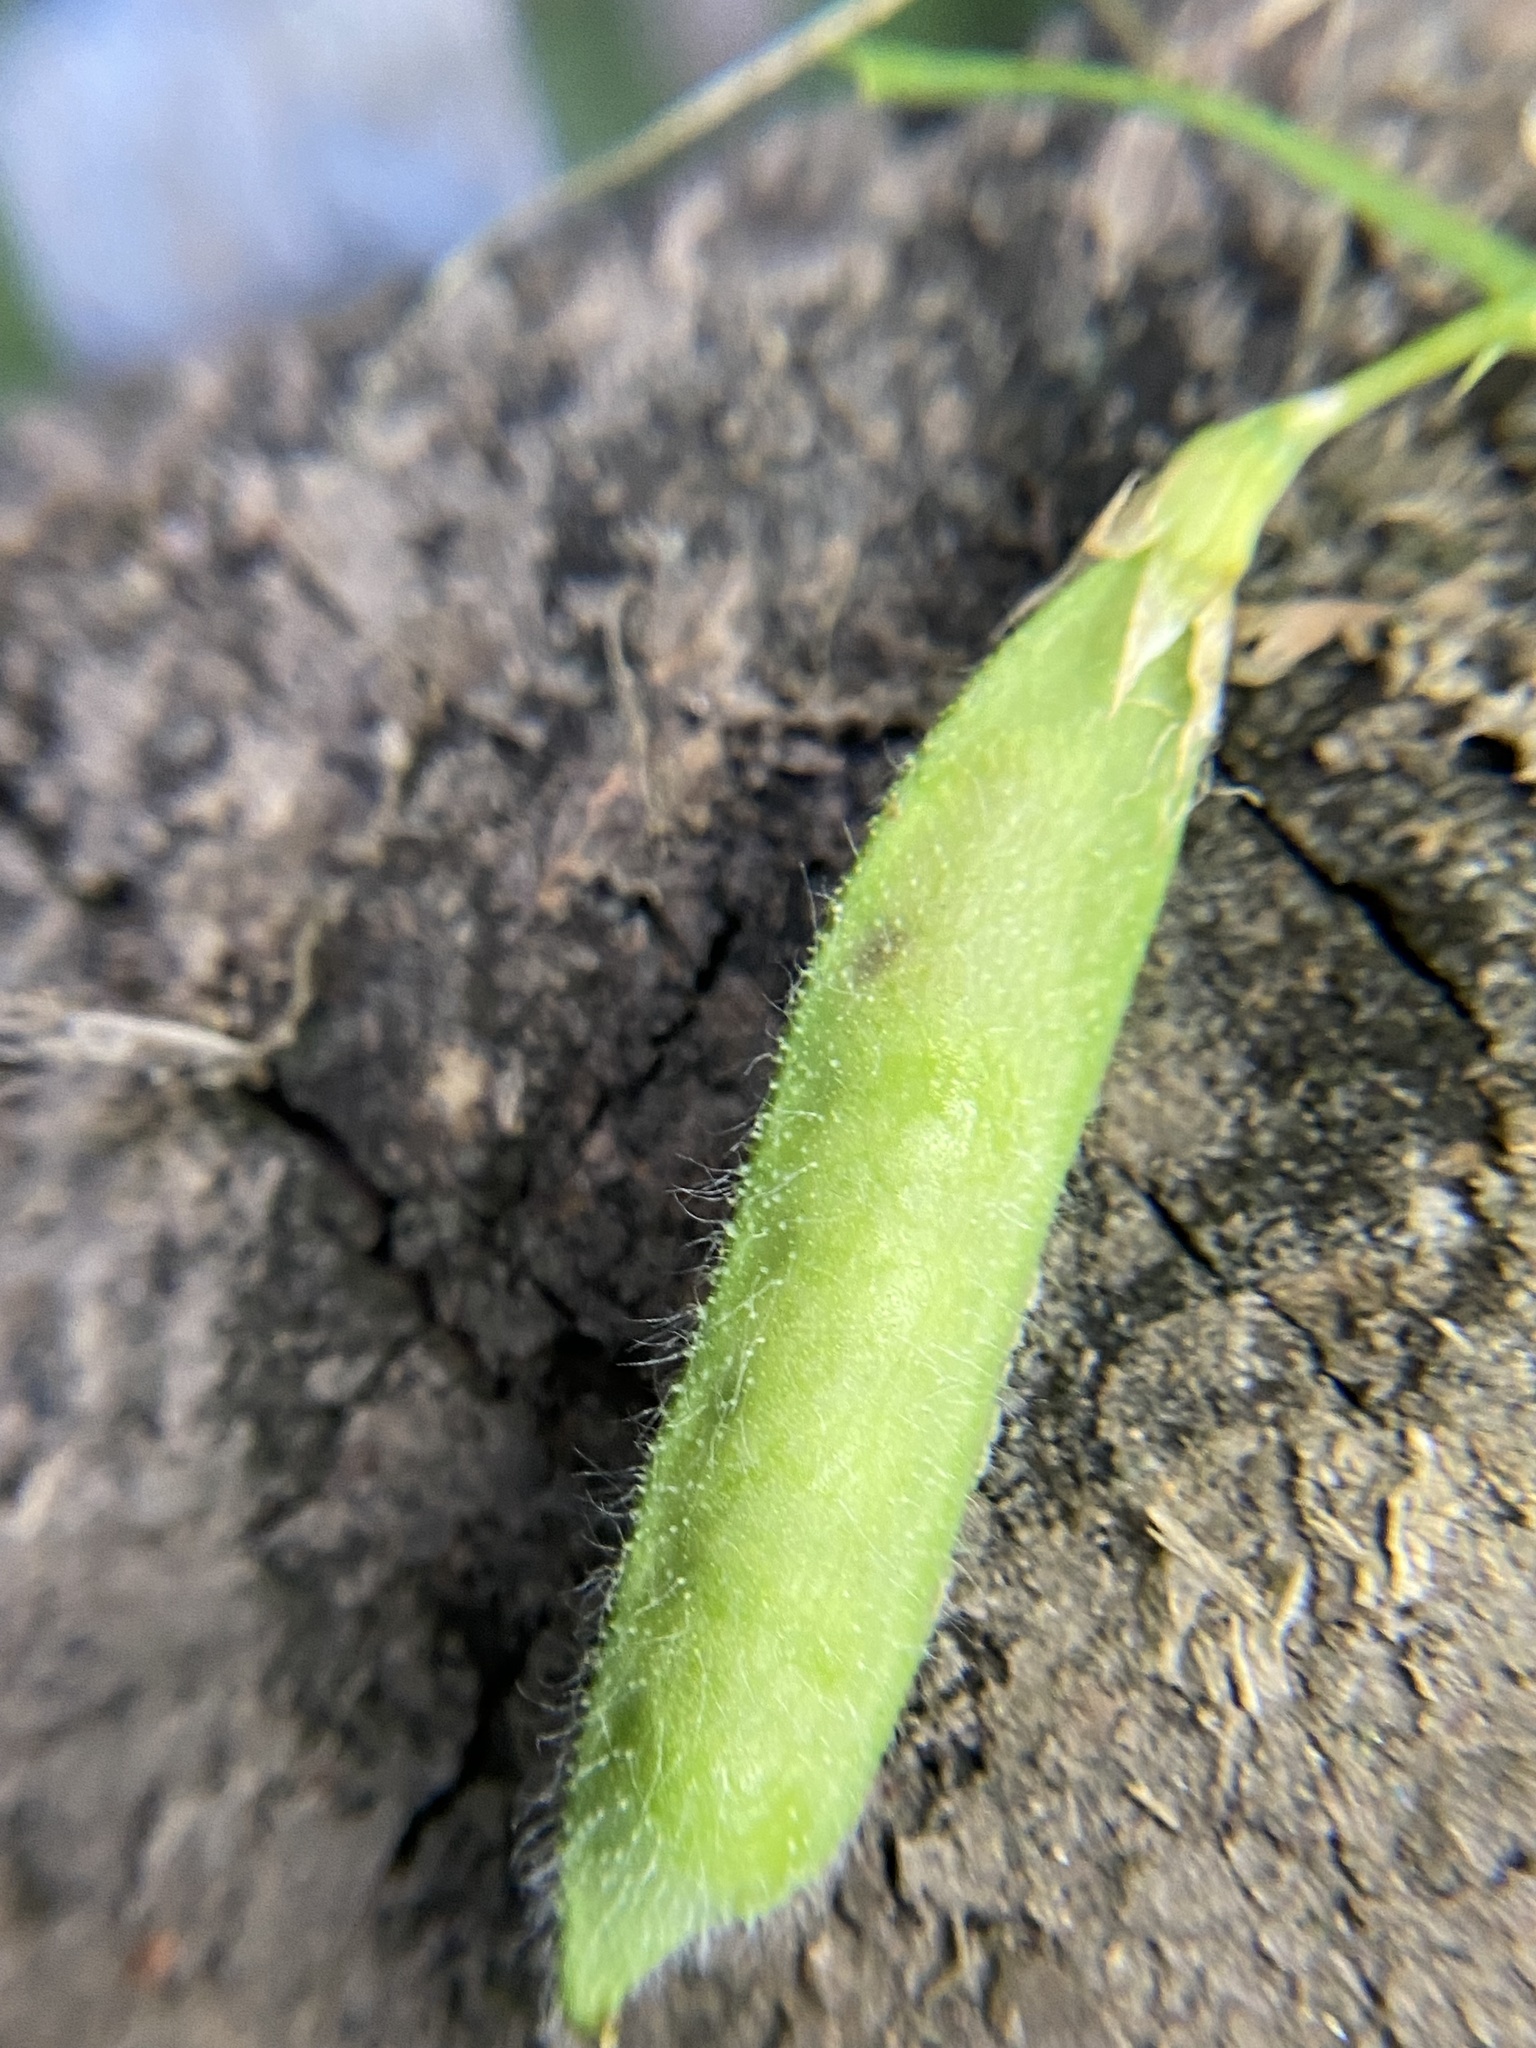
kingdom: Plantae
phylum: Tracheophyta
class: Magnoliopsida
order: Fabales
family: Fabaceae
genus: Lathyrus
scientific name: Lathyrus hirsutus
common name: Hairy vetchling
